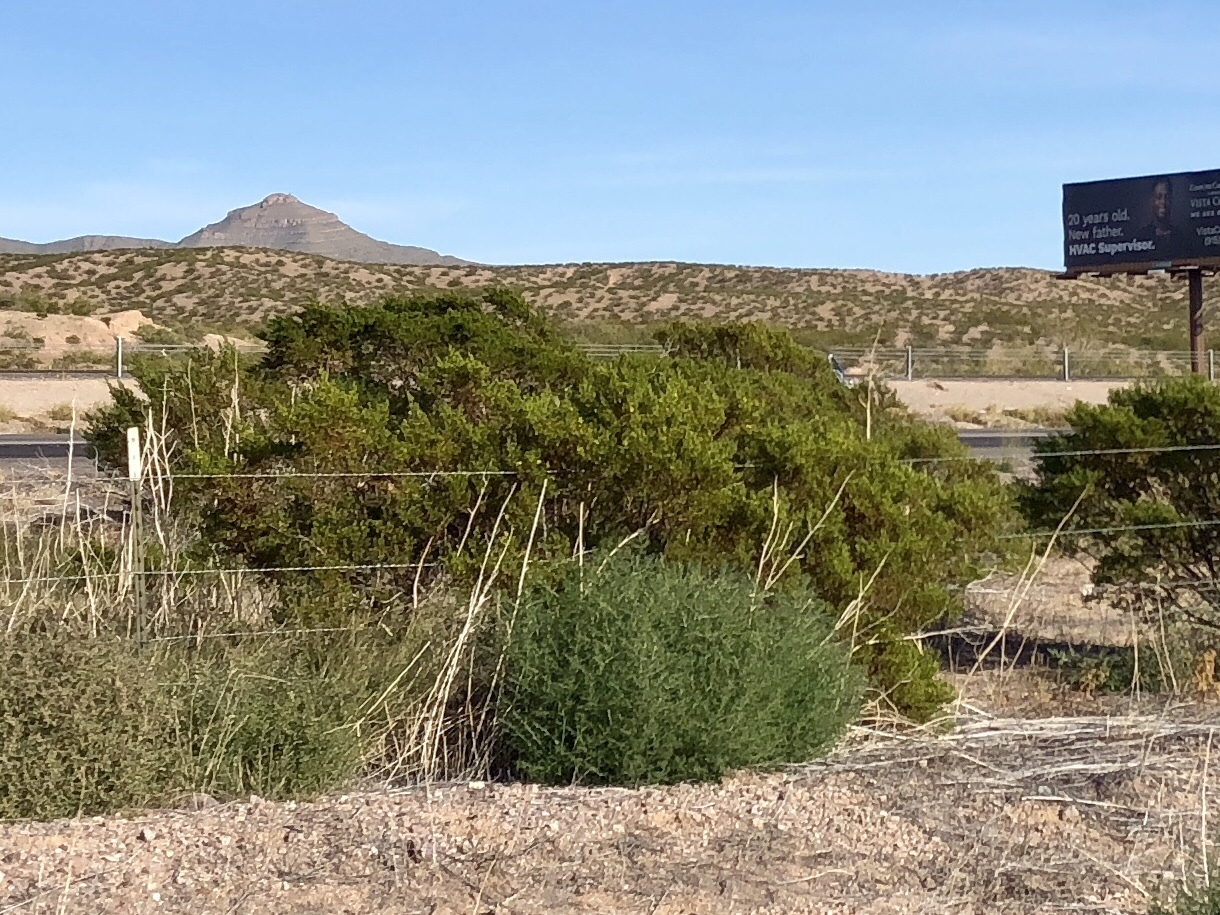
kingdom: Plantae
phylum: Tracheophyta
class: Magnoliopsida
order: Zygophyllales
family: Zygophyllaceae
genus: Larrea
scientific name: Larrea tridentata
